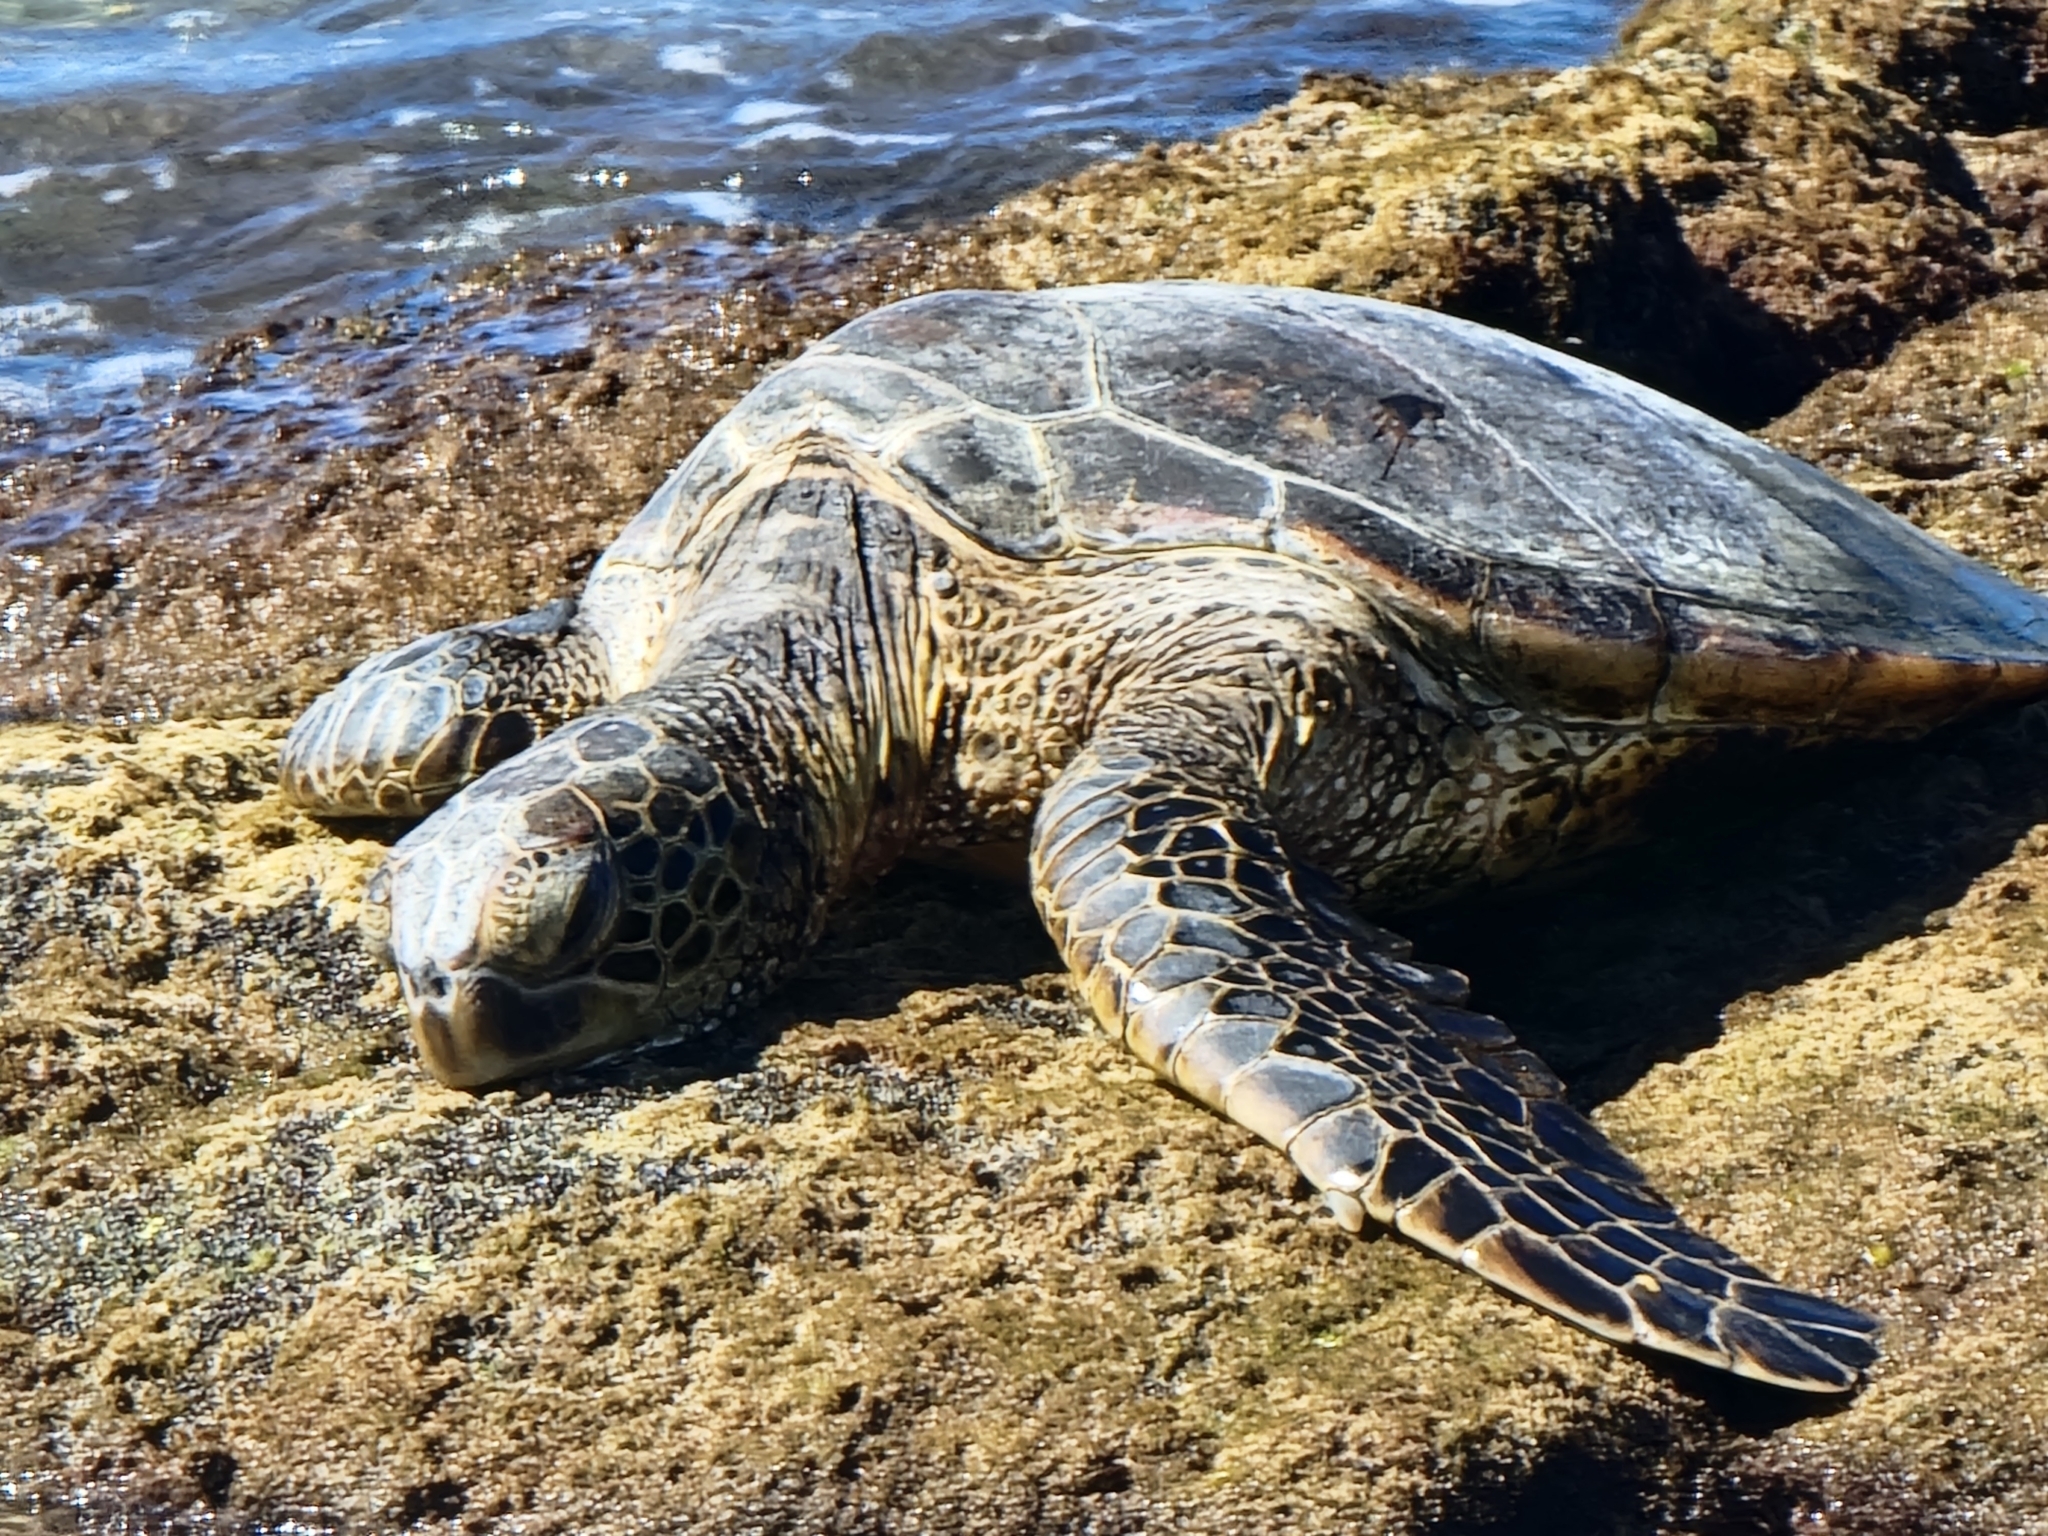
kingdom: Animalia
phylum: Chordata
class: Testudines
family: Cheloniidae
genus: Chelonia
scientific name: Chelonia mydas
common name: Green turtle
